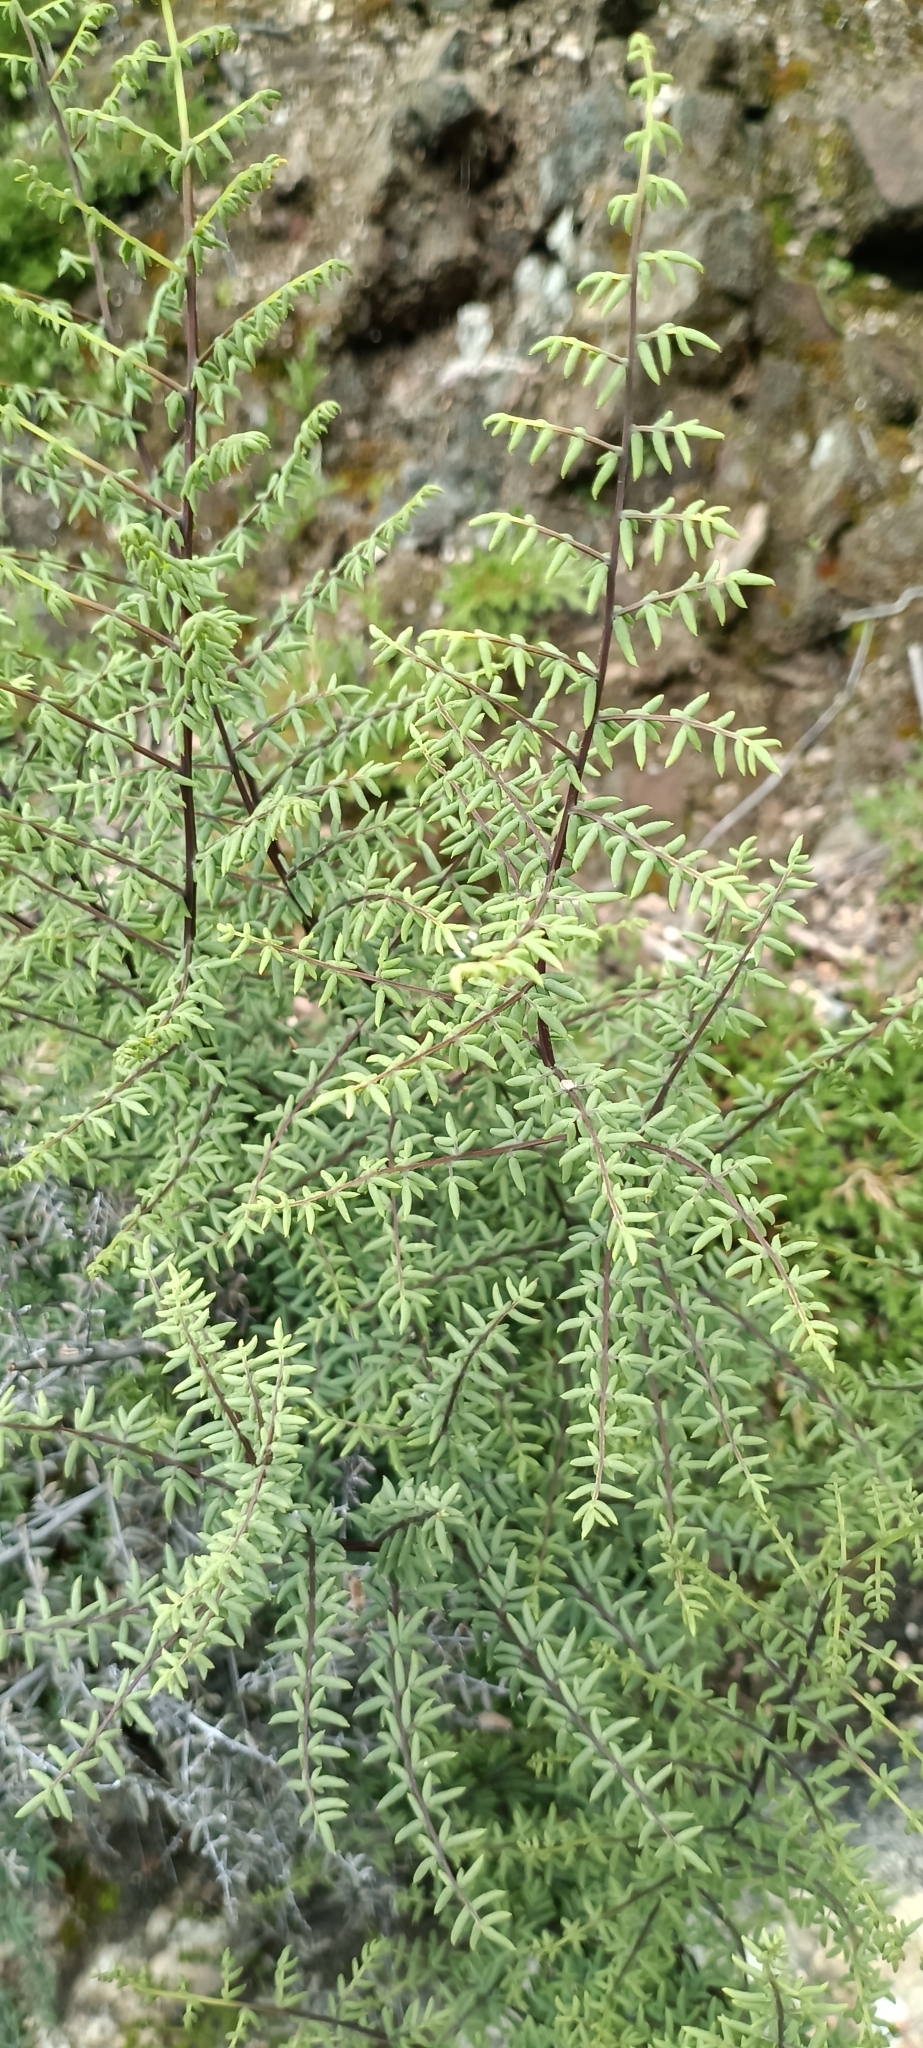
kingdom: Plantae
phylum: Tracheophyta
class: Polypodiopsida
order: Polypodiales
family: Pteridaceae
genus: Pellaea
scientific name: Pellaea mucronata
